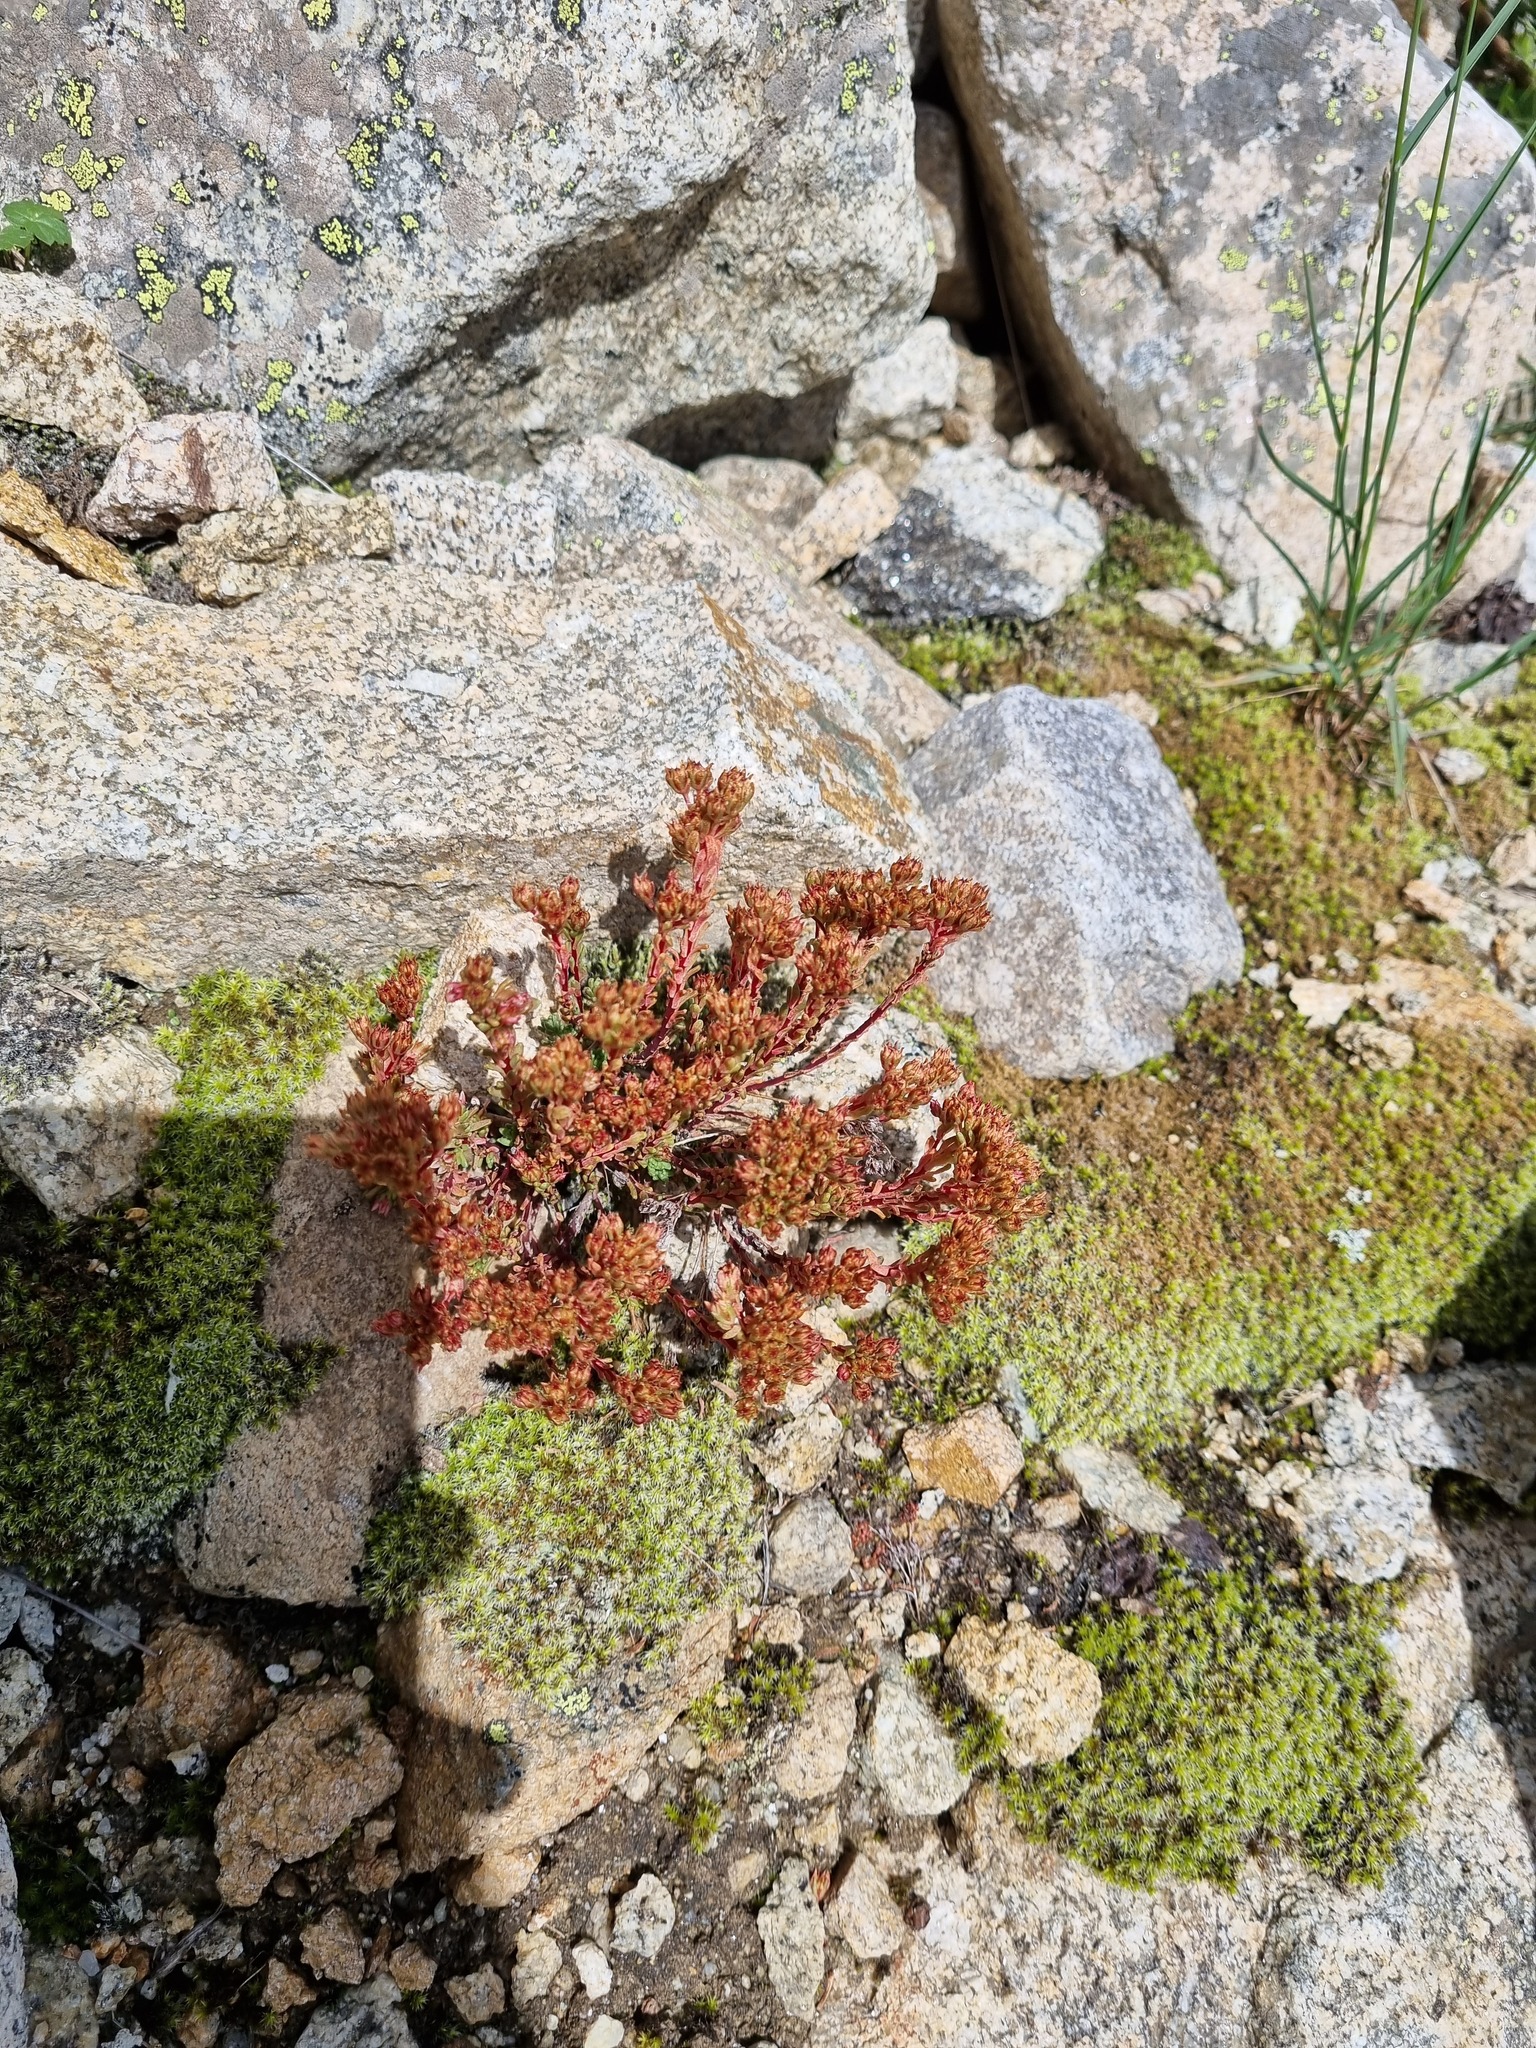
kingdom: Plantae
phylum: Tracheophyta
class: Magnoliopsida
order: Saxifragales
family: Crassulaceae
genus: Sedum
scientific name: Sedum tenellum
